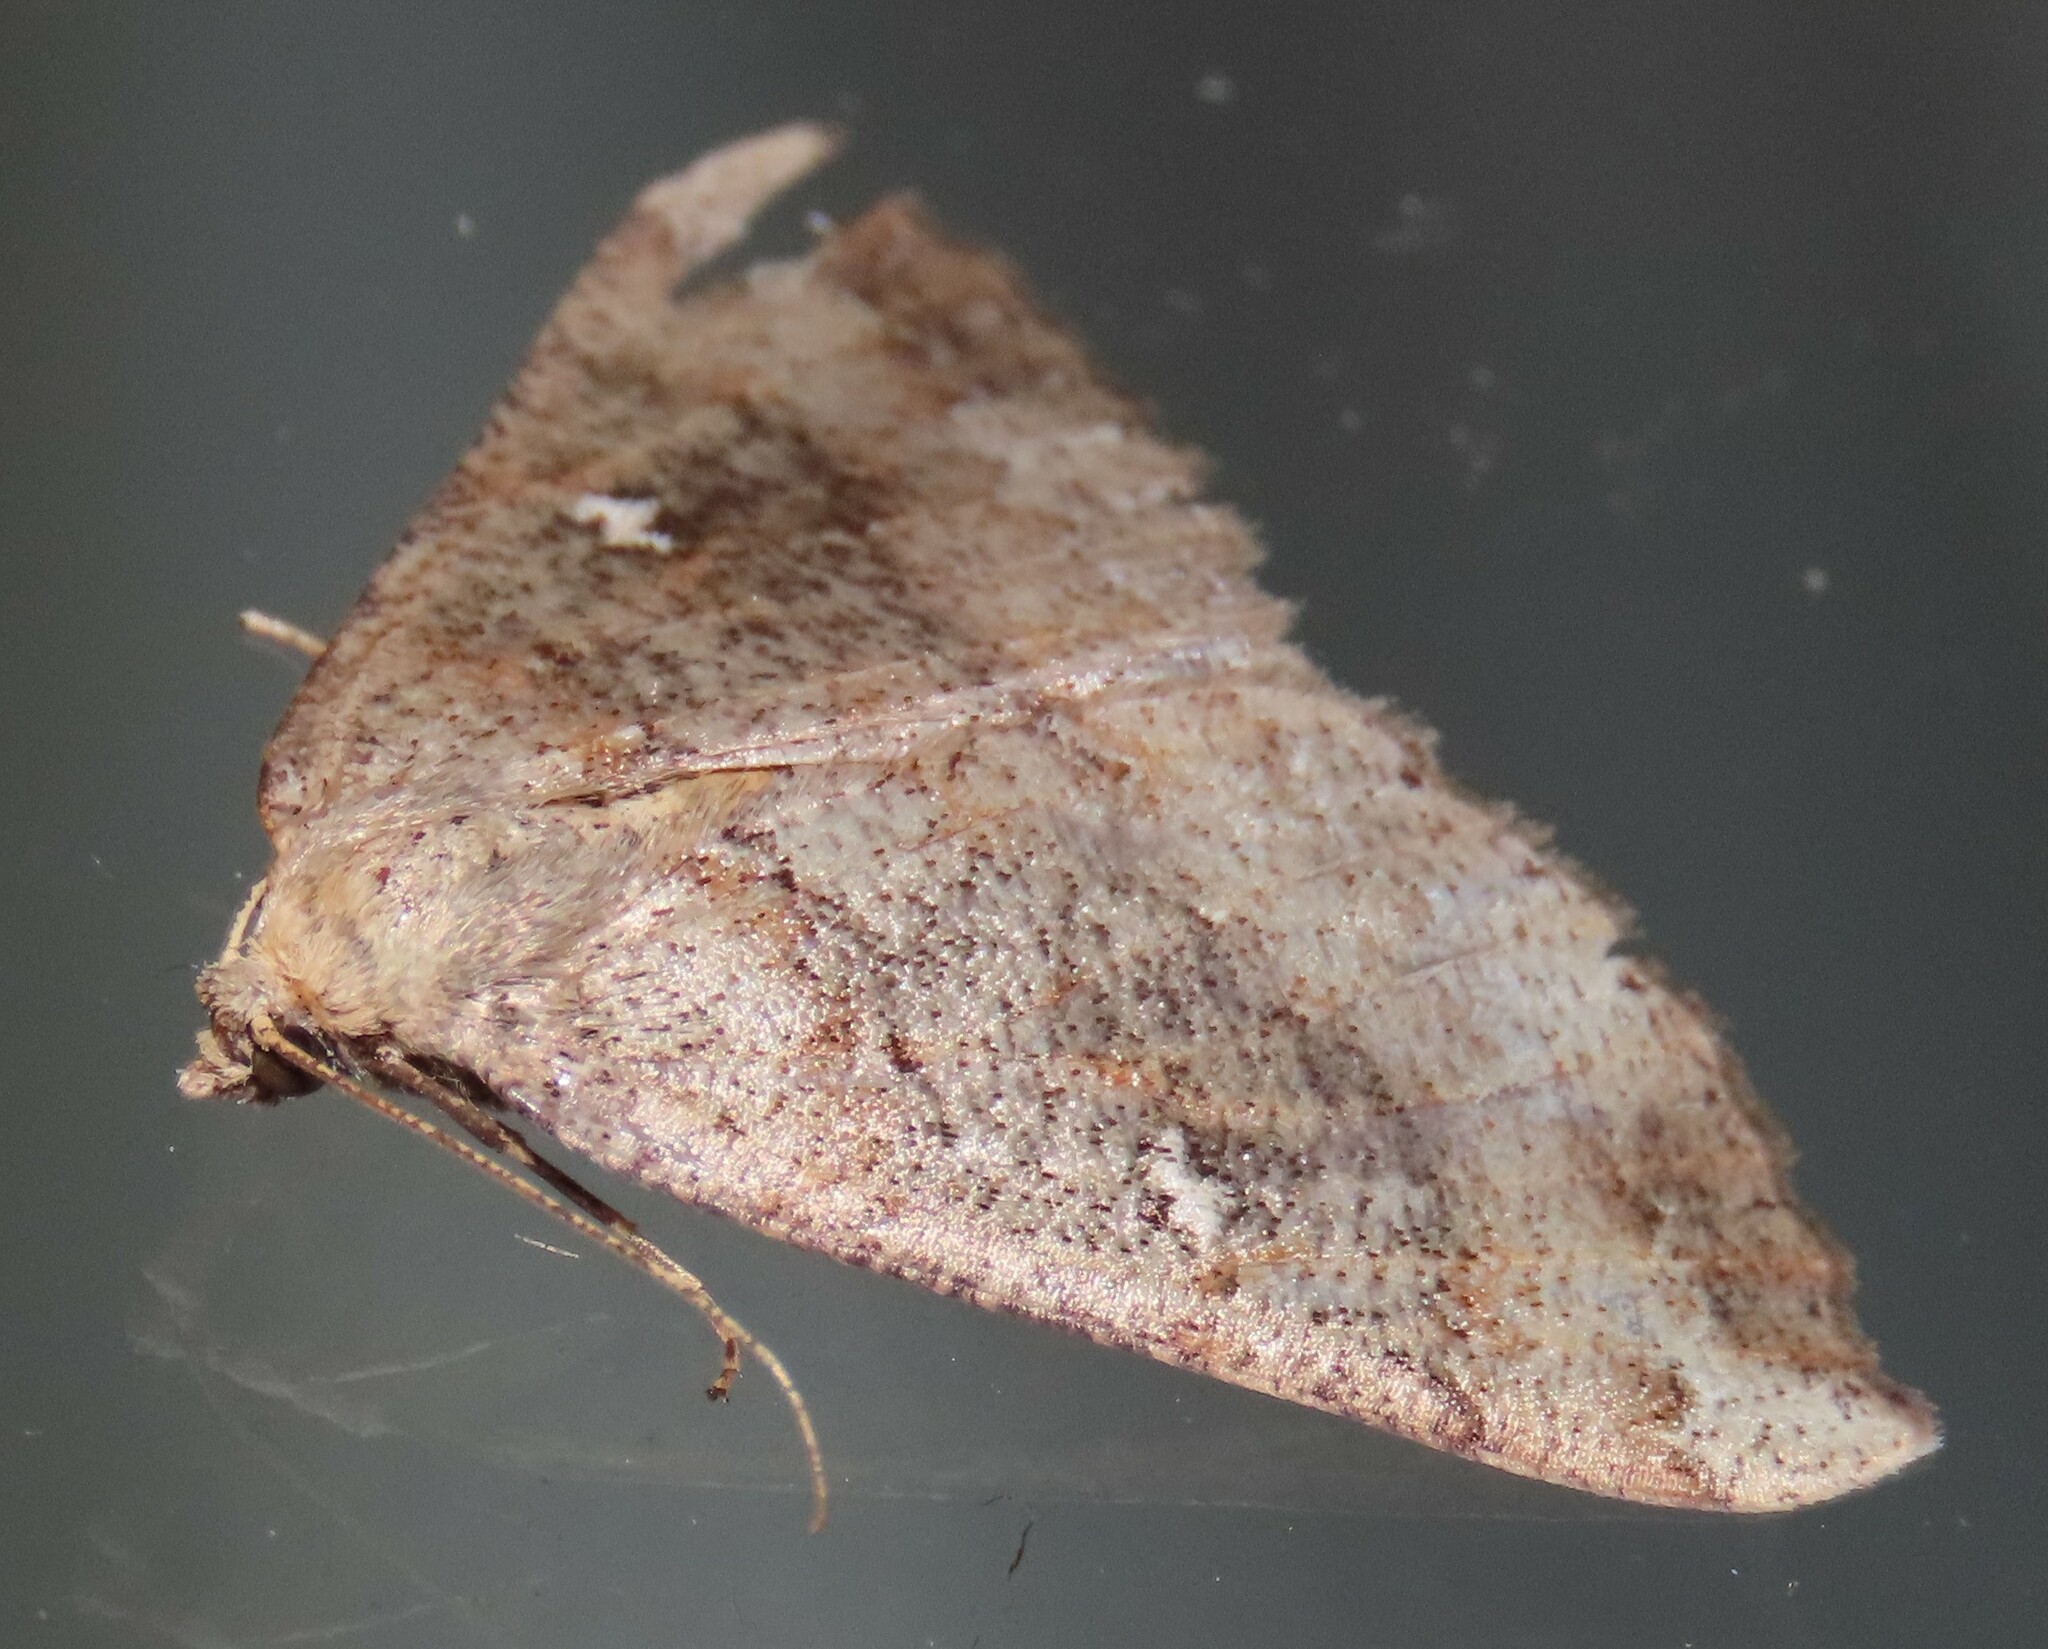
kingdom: Animalia
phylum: Arthropoda
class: Insecta
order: Lepidoptera
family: Geometridae
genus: Cleora
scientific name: Cleora scriptaria
